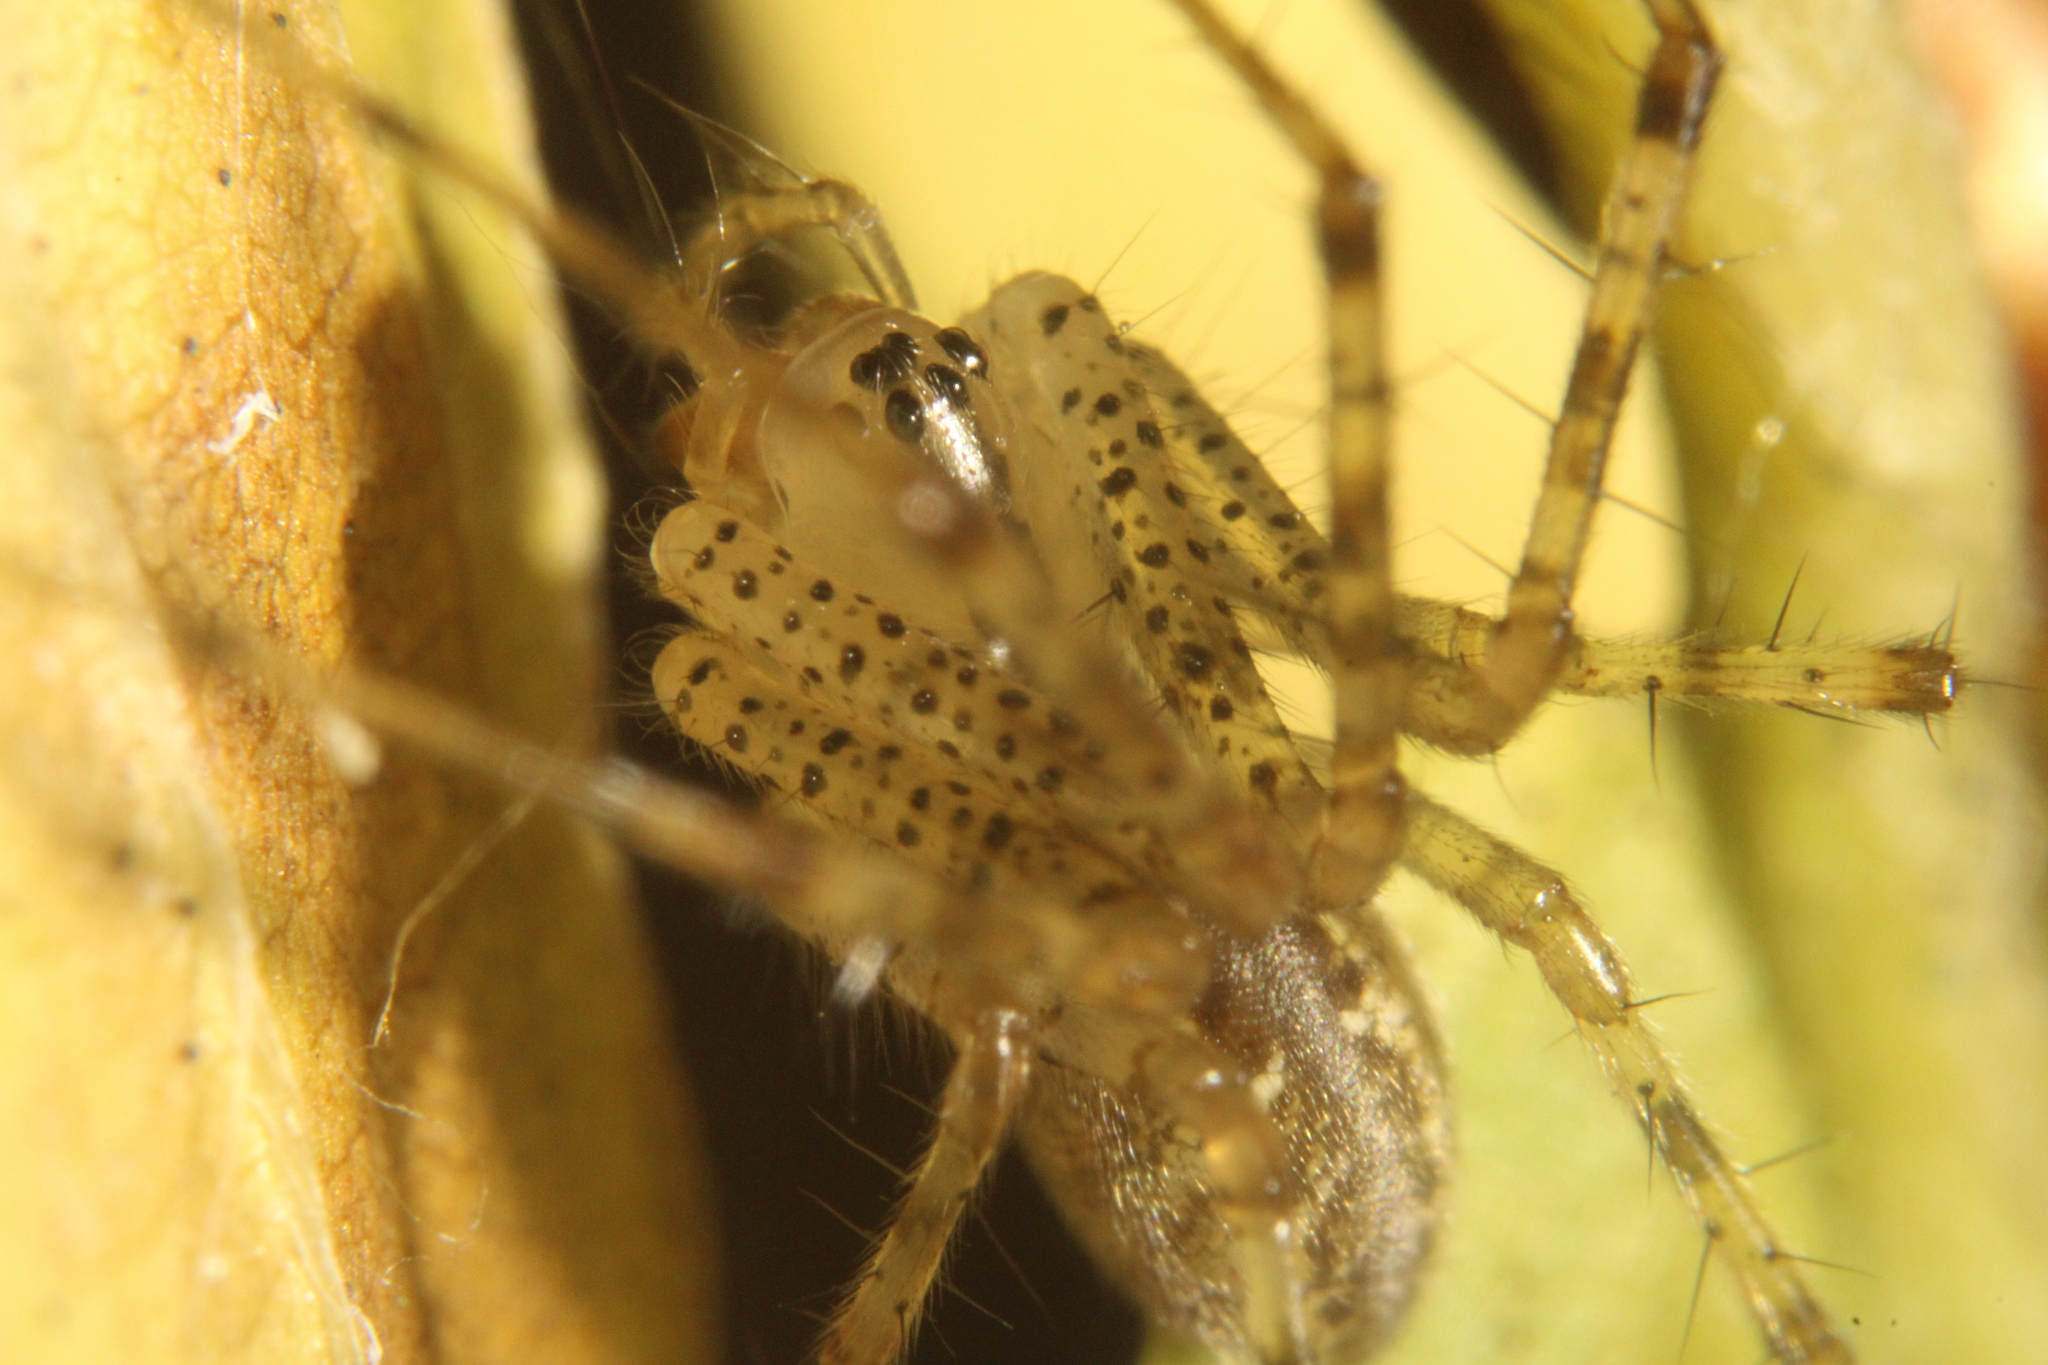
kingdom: Animalia
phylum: Arthropoda
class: Arachnida
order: Araneae
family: Linyphiidae
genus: Pityohyphantes
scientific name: Pityohyphantes costatus
